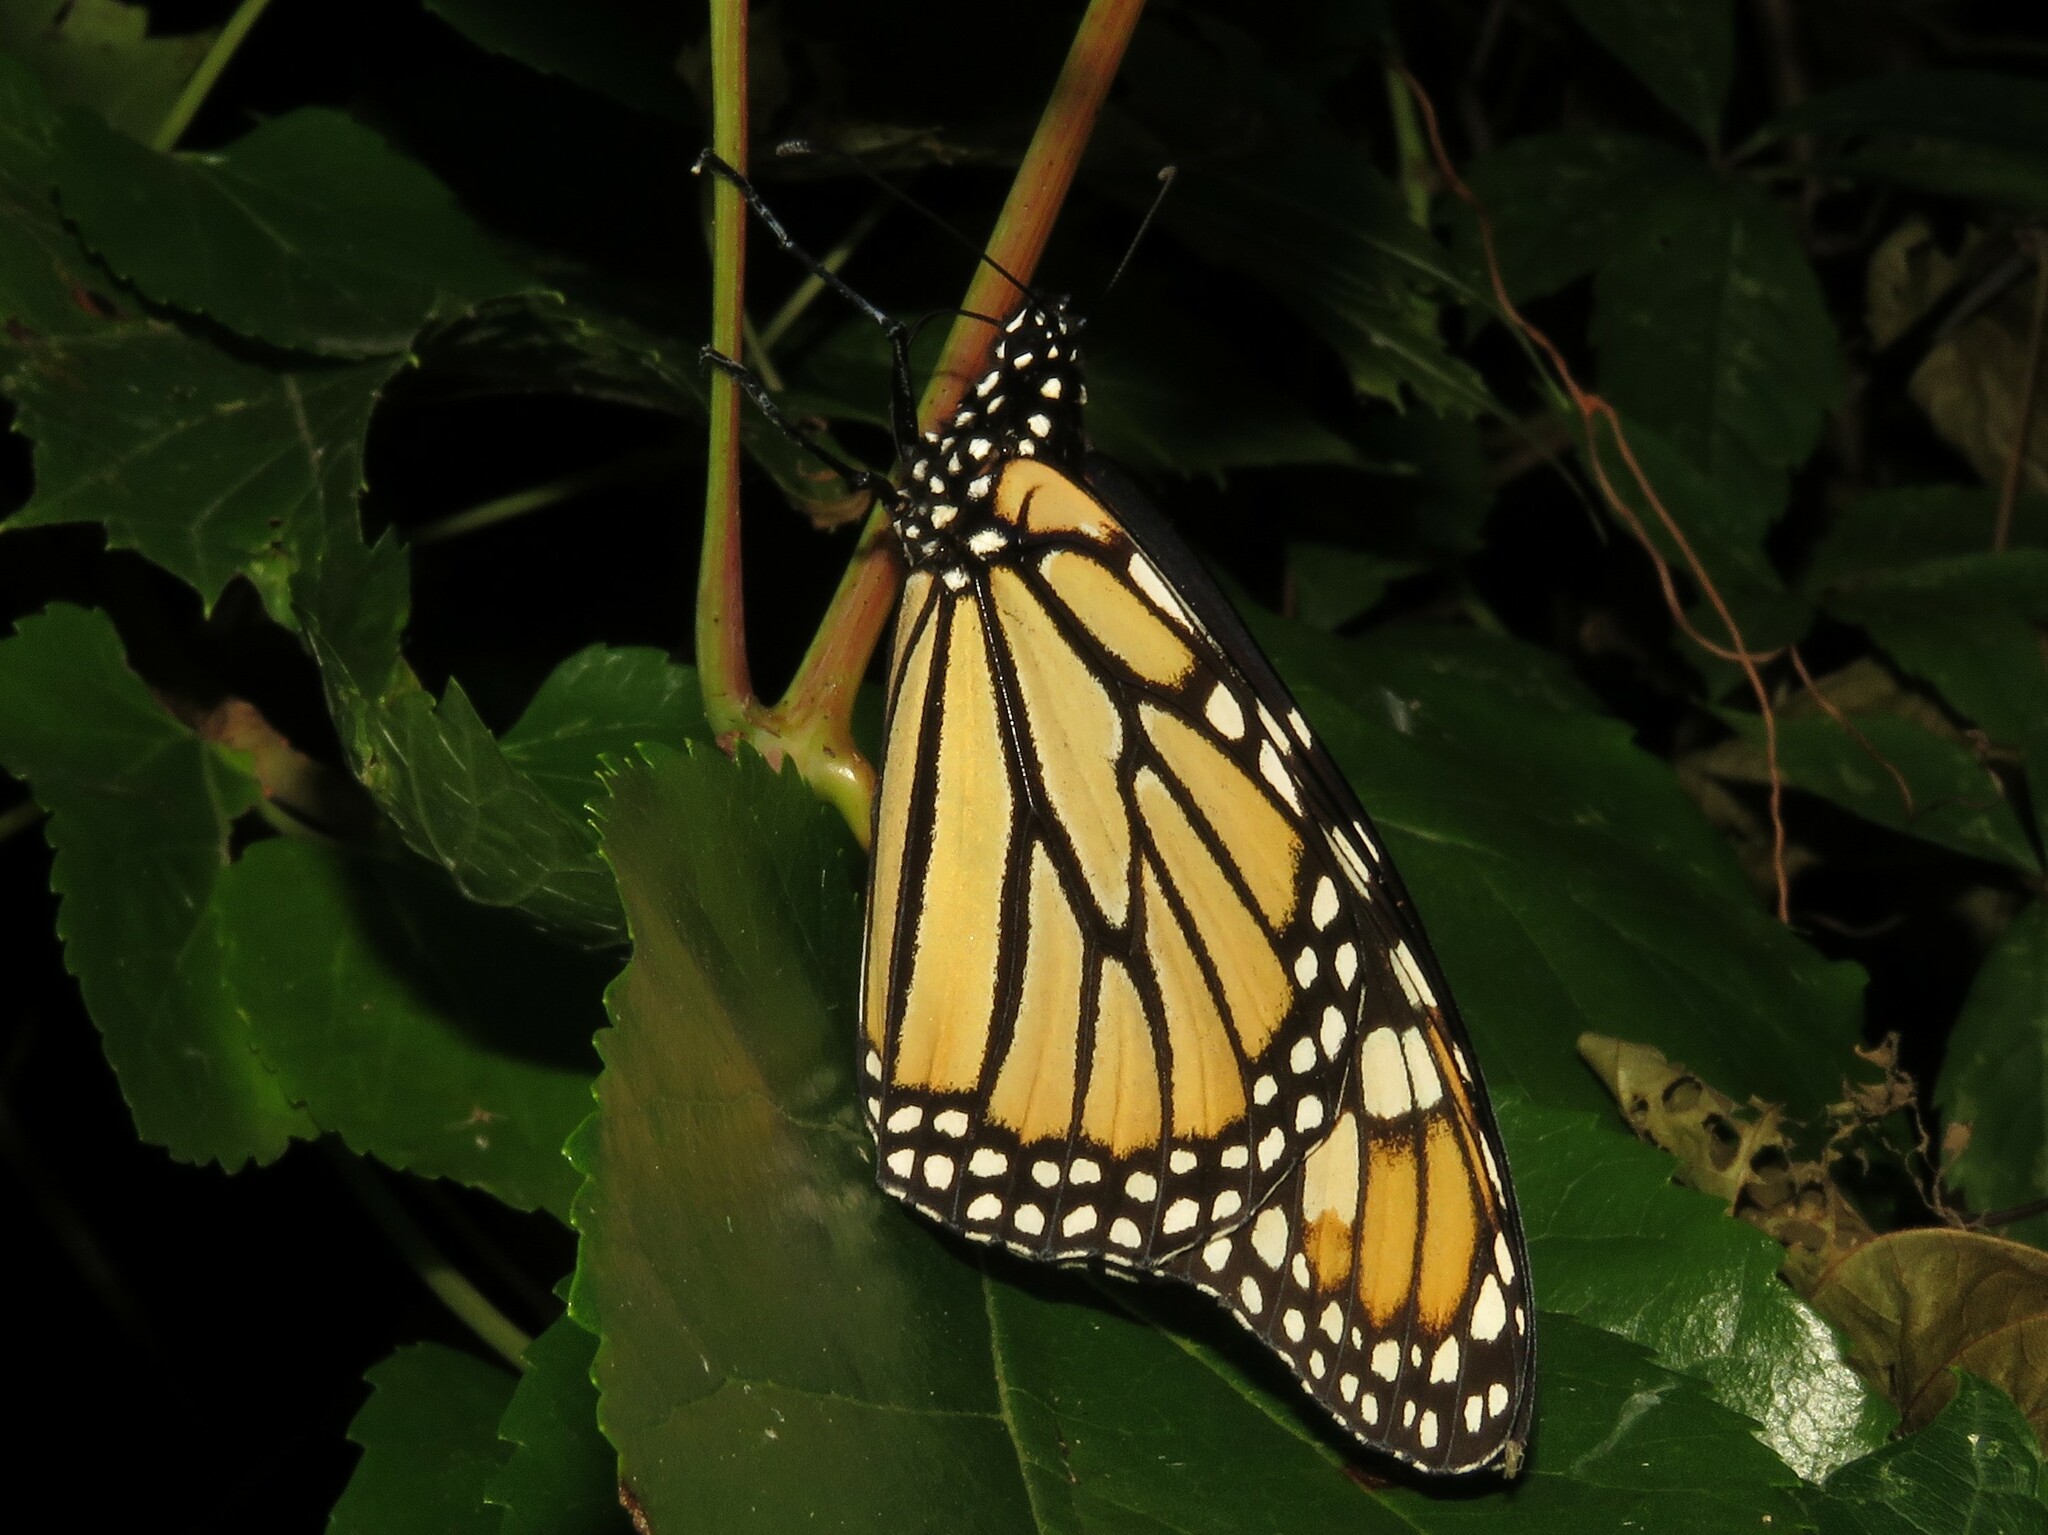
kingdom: Animalia
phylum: Arthropoda
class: Insecta
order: Lepidoptera
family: Nymphalidae
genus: Danaus
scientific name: Danaus plexippus
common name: Monarch
